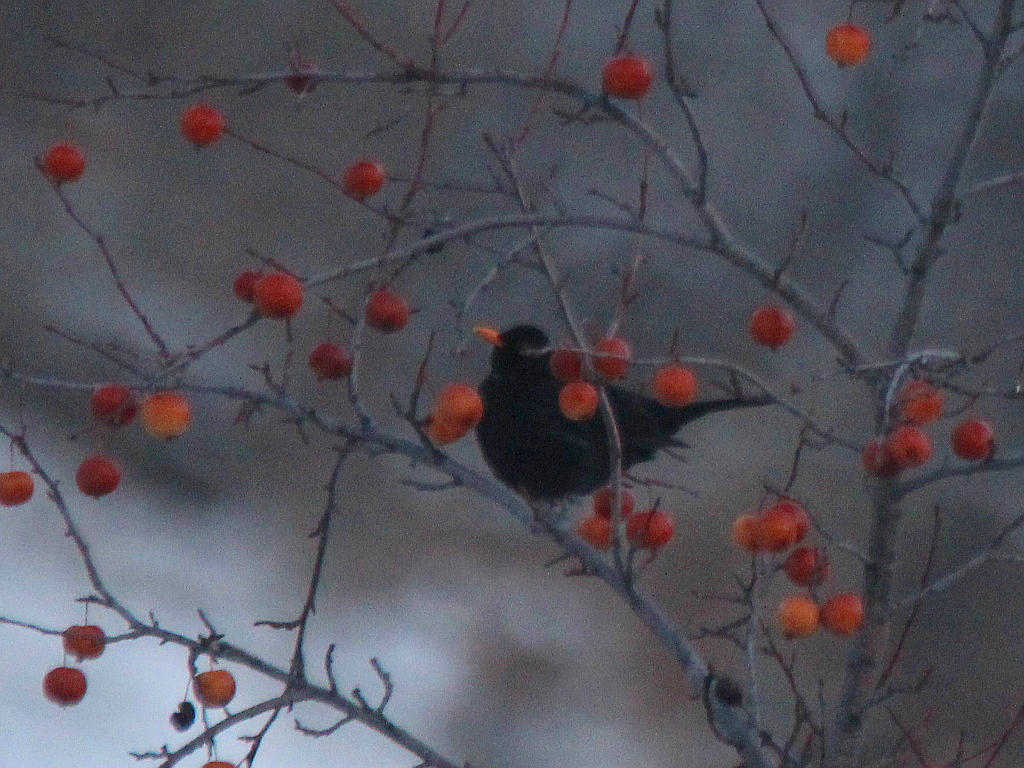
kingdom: Animalia
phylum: Chordata
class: Aves
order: Passeriformes
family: Turdidae
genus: Turdus
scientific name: Turdus merula
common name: Common blackbird
